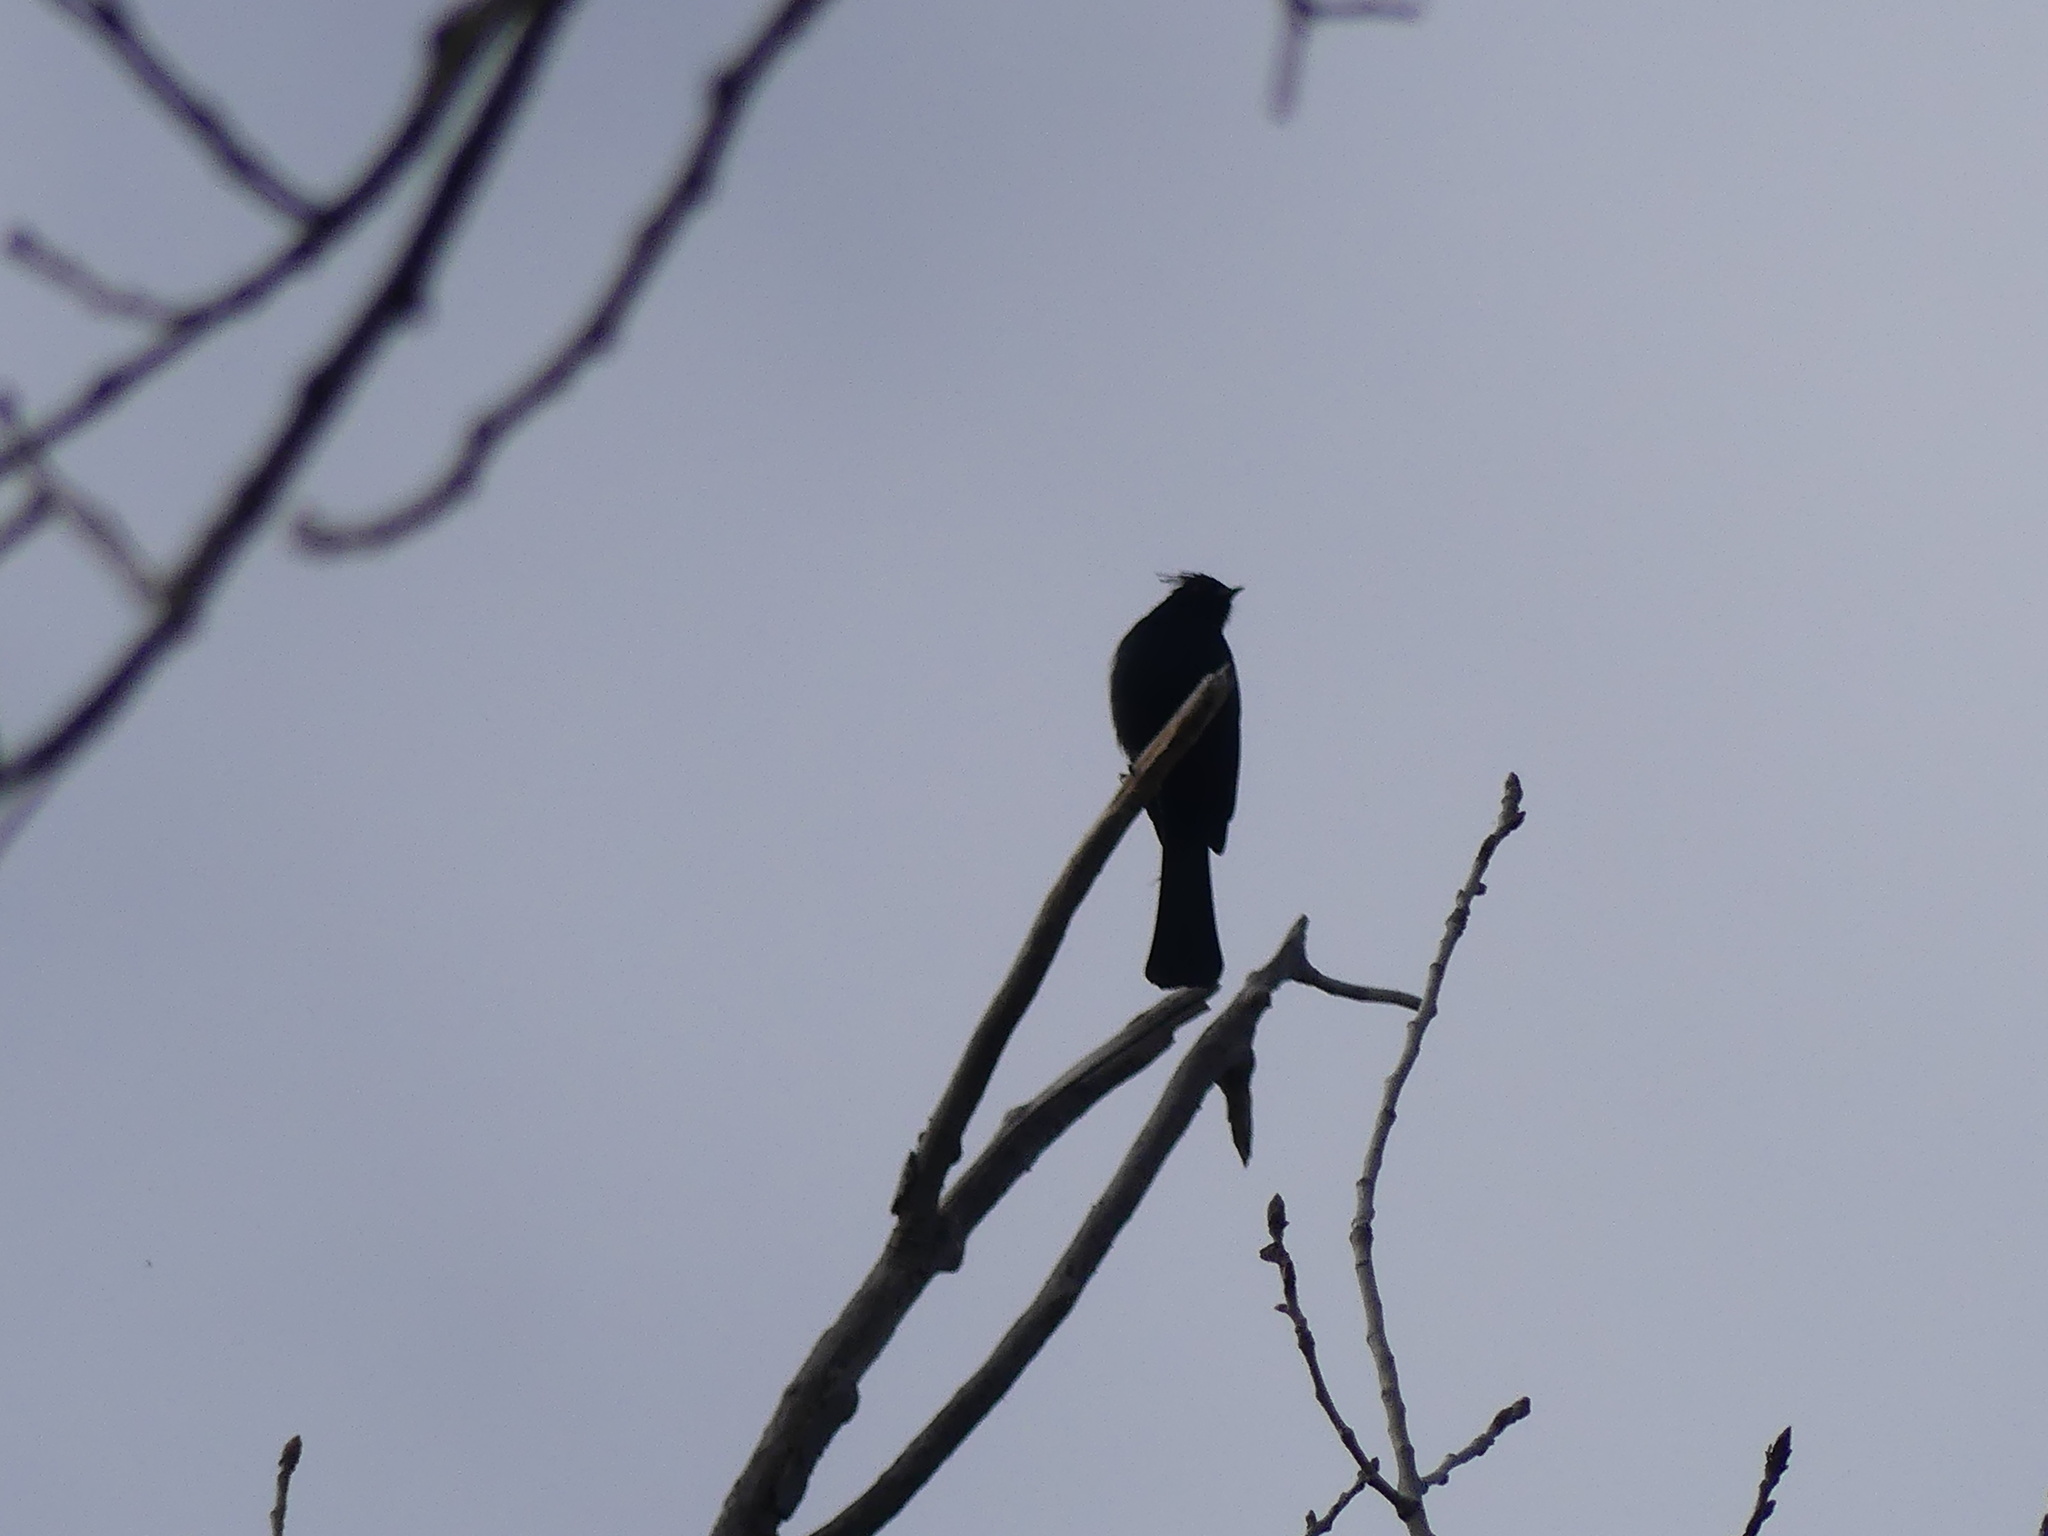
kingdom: Animalia
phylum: Chordata
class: Aves
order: Passeriformes
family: Ptilogonatidae
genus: Phainopepla
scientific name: Phainopepla nitens
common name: Phainopepla
